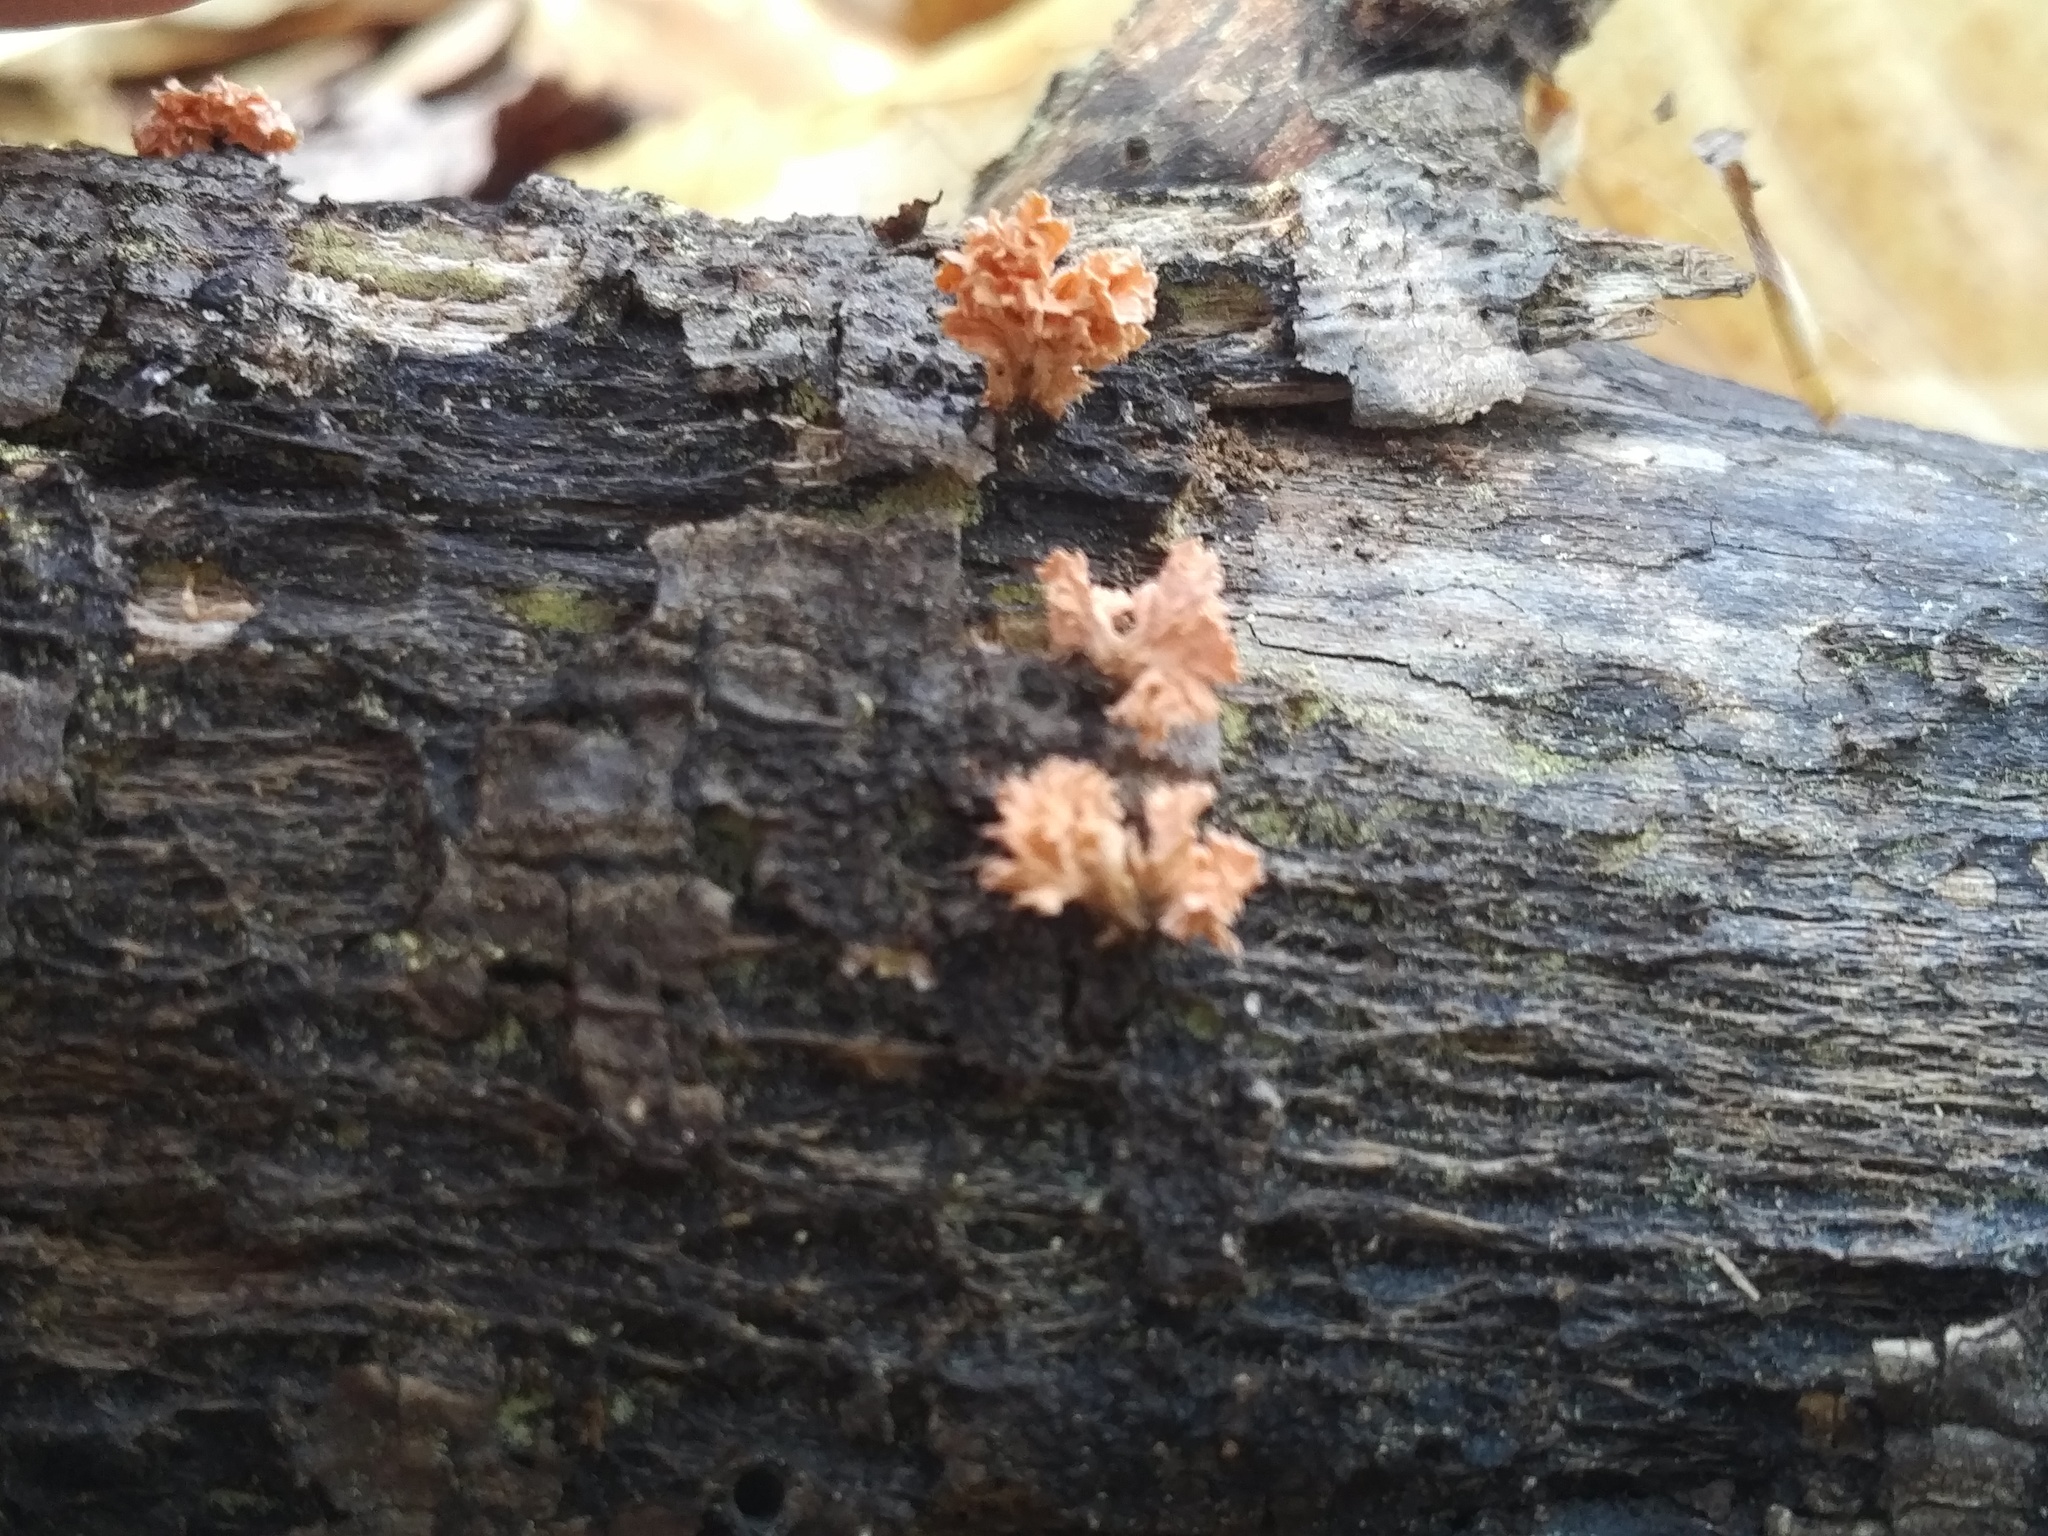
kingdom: Fungi
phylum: Ascomycota
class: Sordariomycetes
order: Xylariales
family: Xylariaceae
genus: Xylaria
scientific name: Xylaria cubensis
